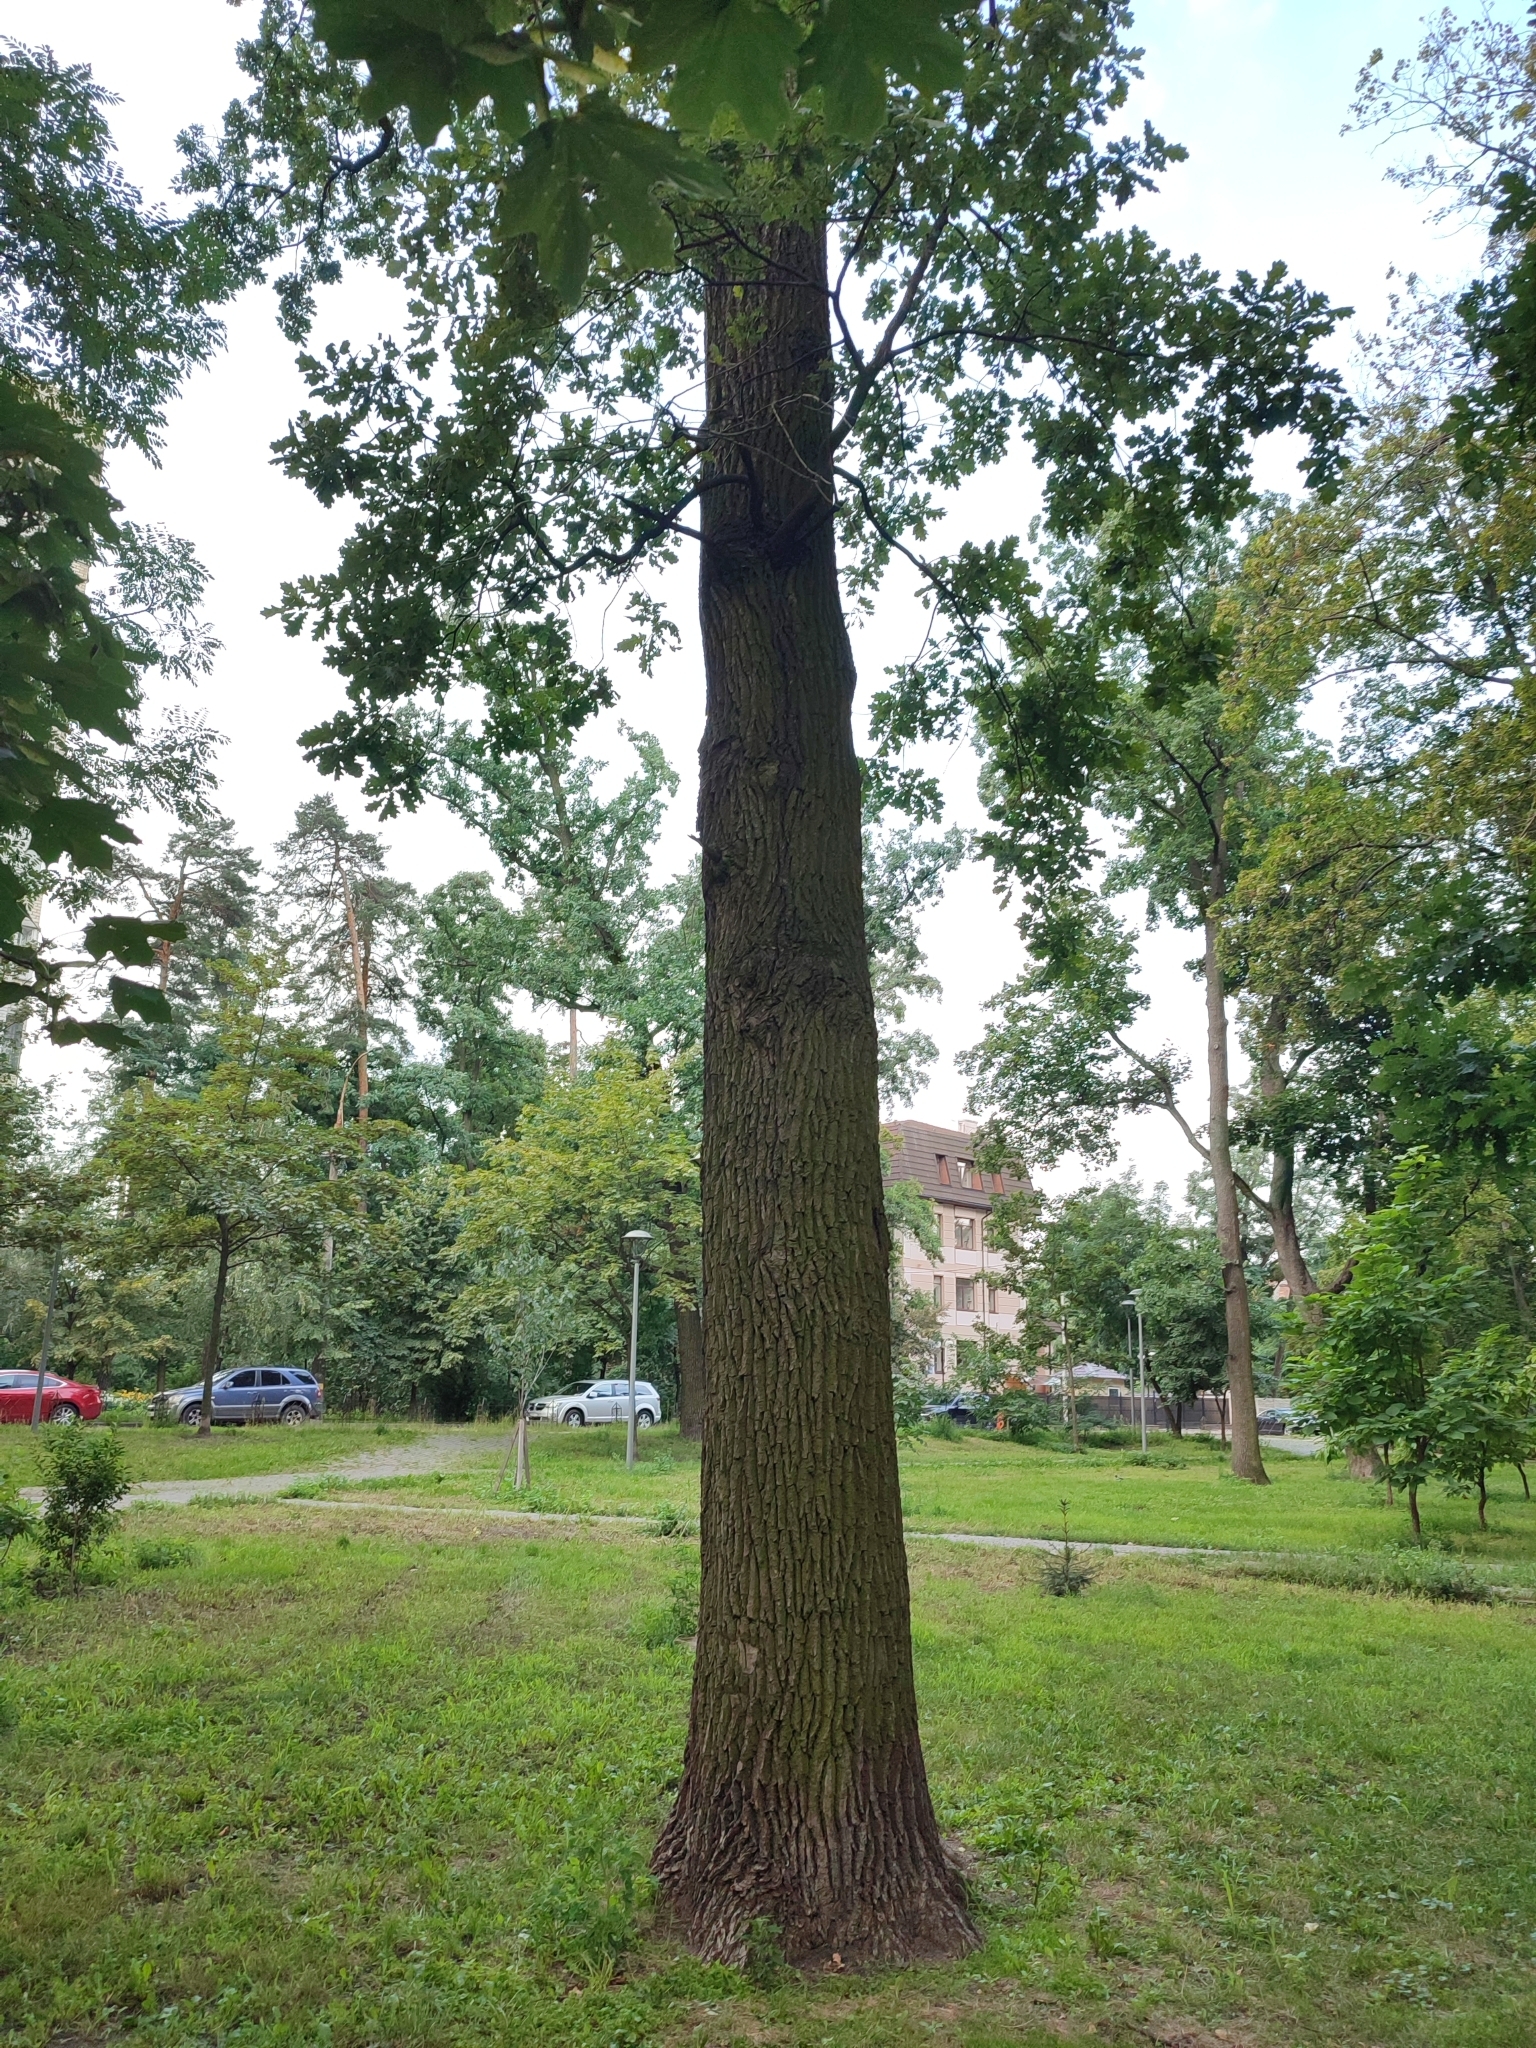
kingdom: Plantae
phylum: Tracheophyta
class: Magnoliopsida
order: Fagales
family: Fagaceae
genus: Quercus
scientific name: Quercus robur
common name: Pedunculate oak
